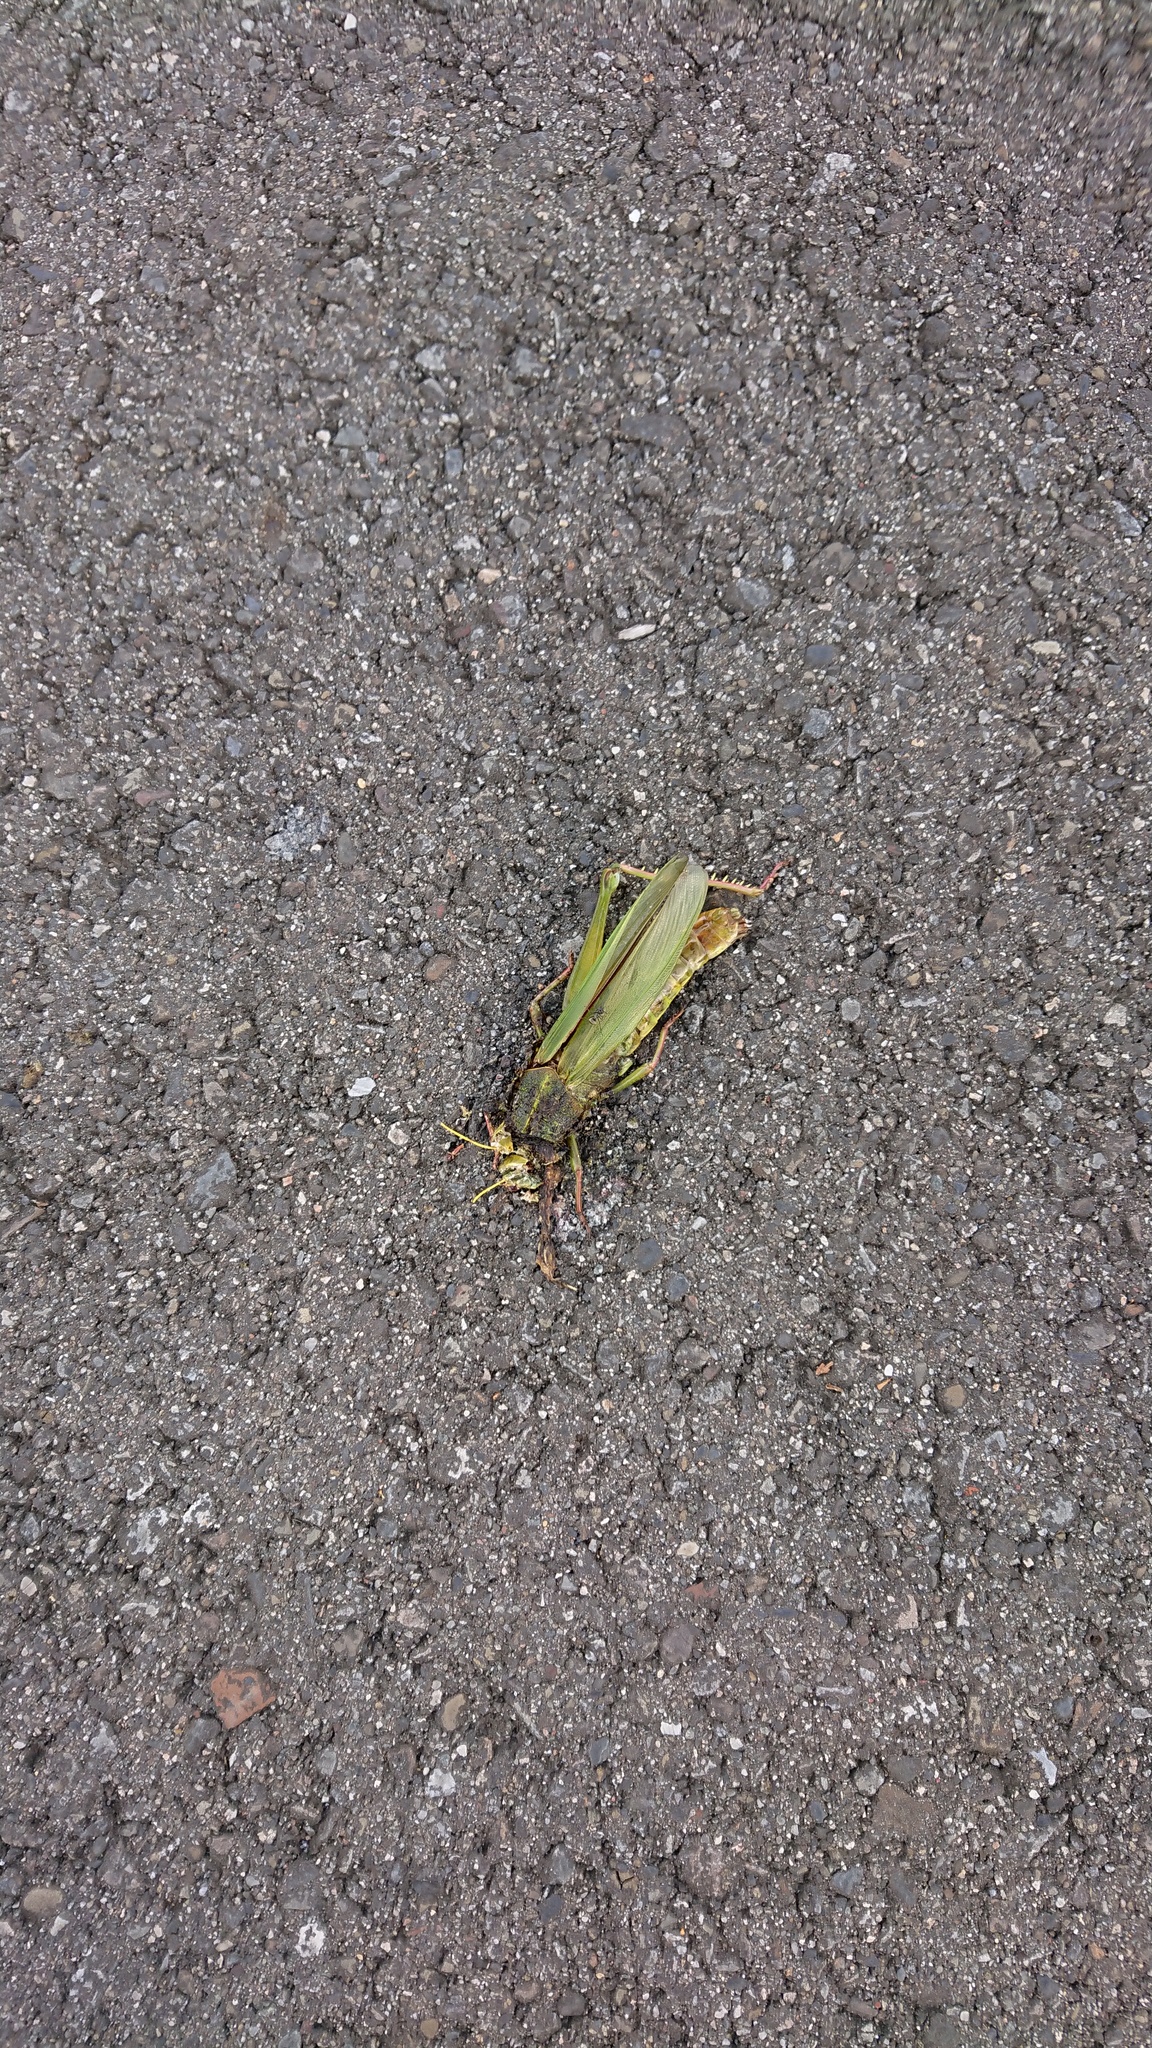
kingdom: Animalia
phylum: Arthropoda
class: Insecta
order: Orthoptera
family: Acrididae
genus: Chondracris
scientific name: Chondracris rosea
